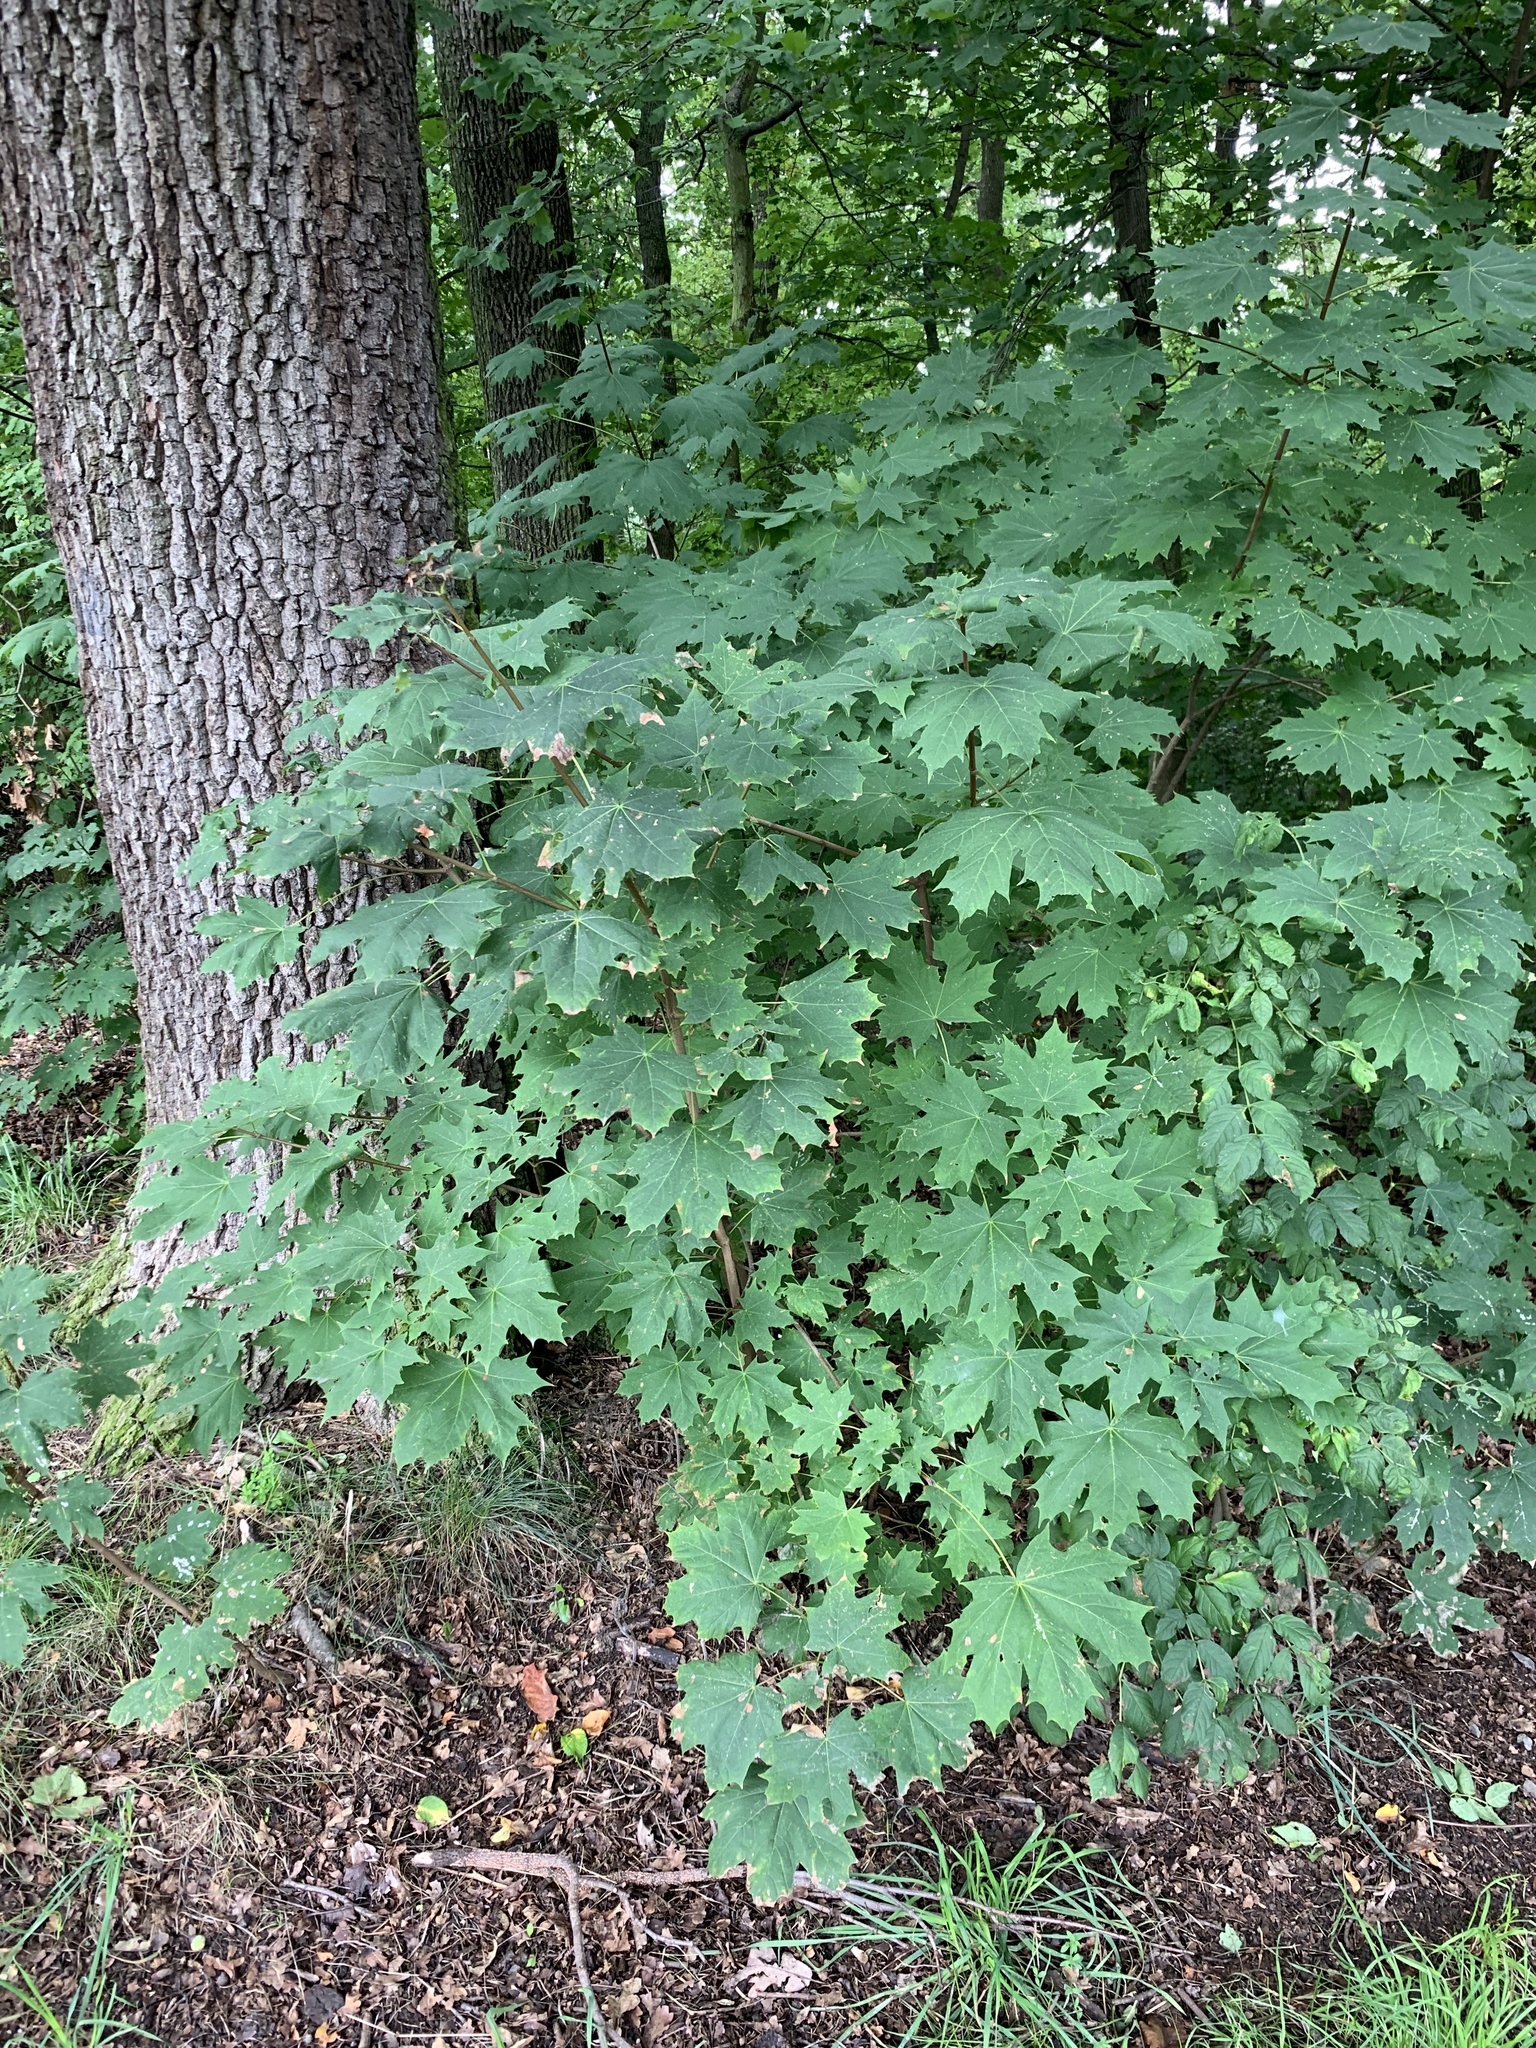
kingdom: Plantae
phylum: Tracheophyta
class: Magnoliopsida
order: Sapindales
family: Sapindaceae
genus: Acer
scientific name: Acer platanoides
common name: Norway maple
